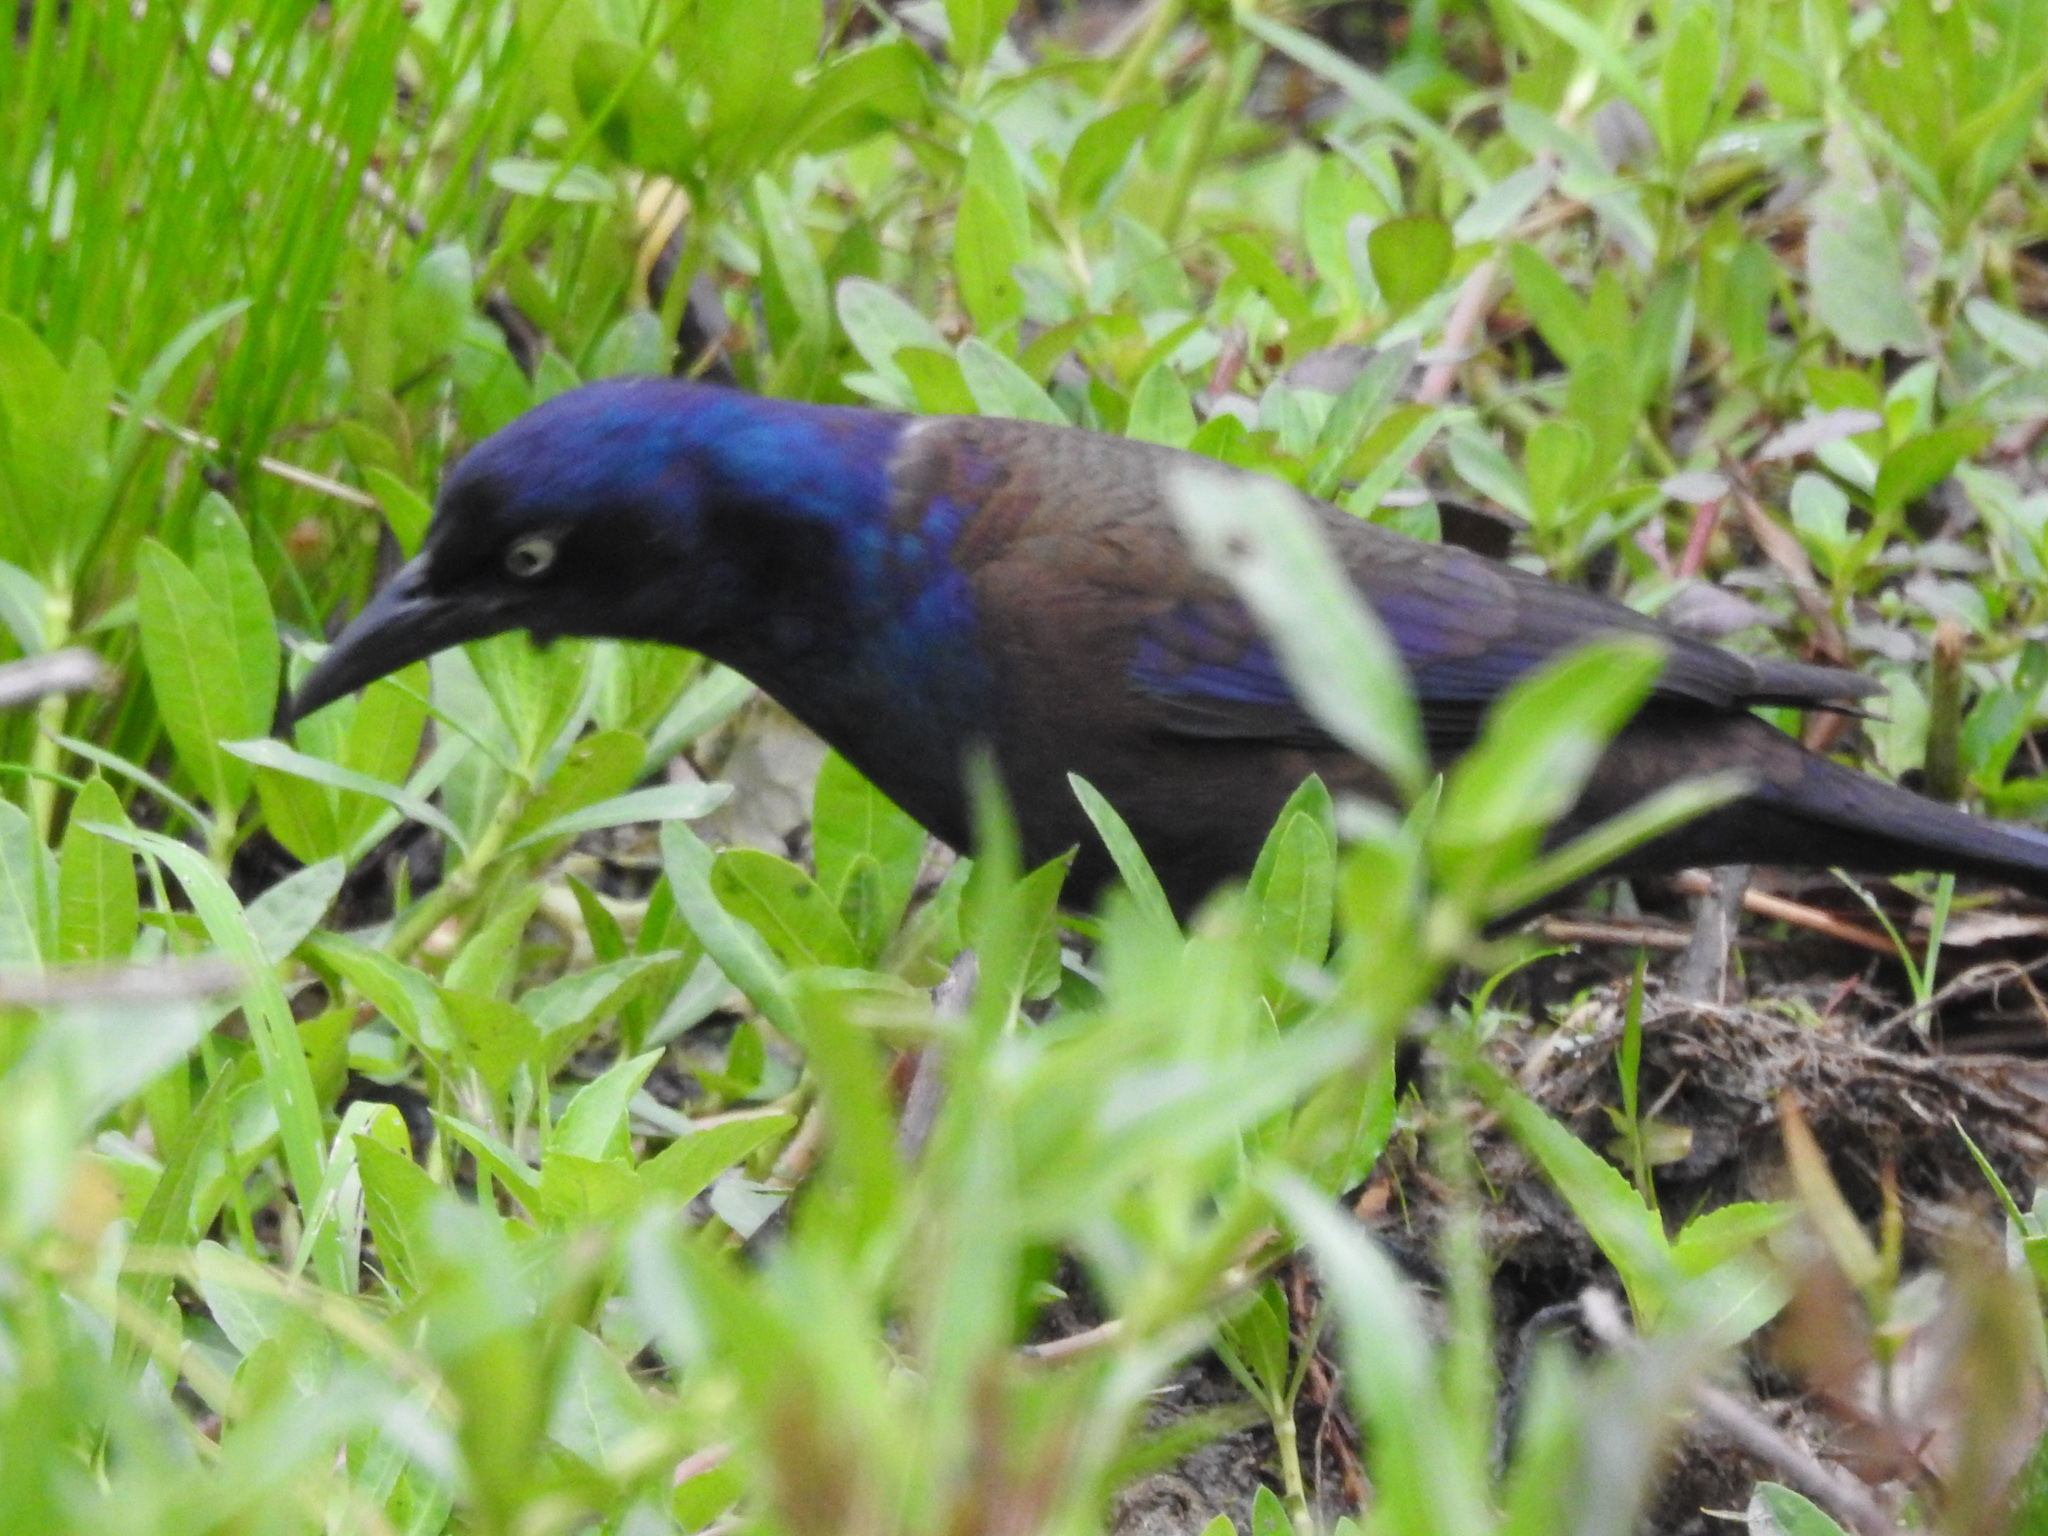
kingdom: Animalia
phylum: Chordata
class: Aves
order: Passeriformes
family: Icteridae
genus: Quiscalus
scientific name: Quiscalus quiscula
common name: Common grackle
